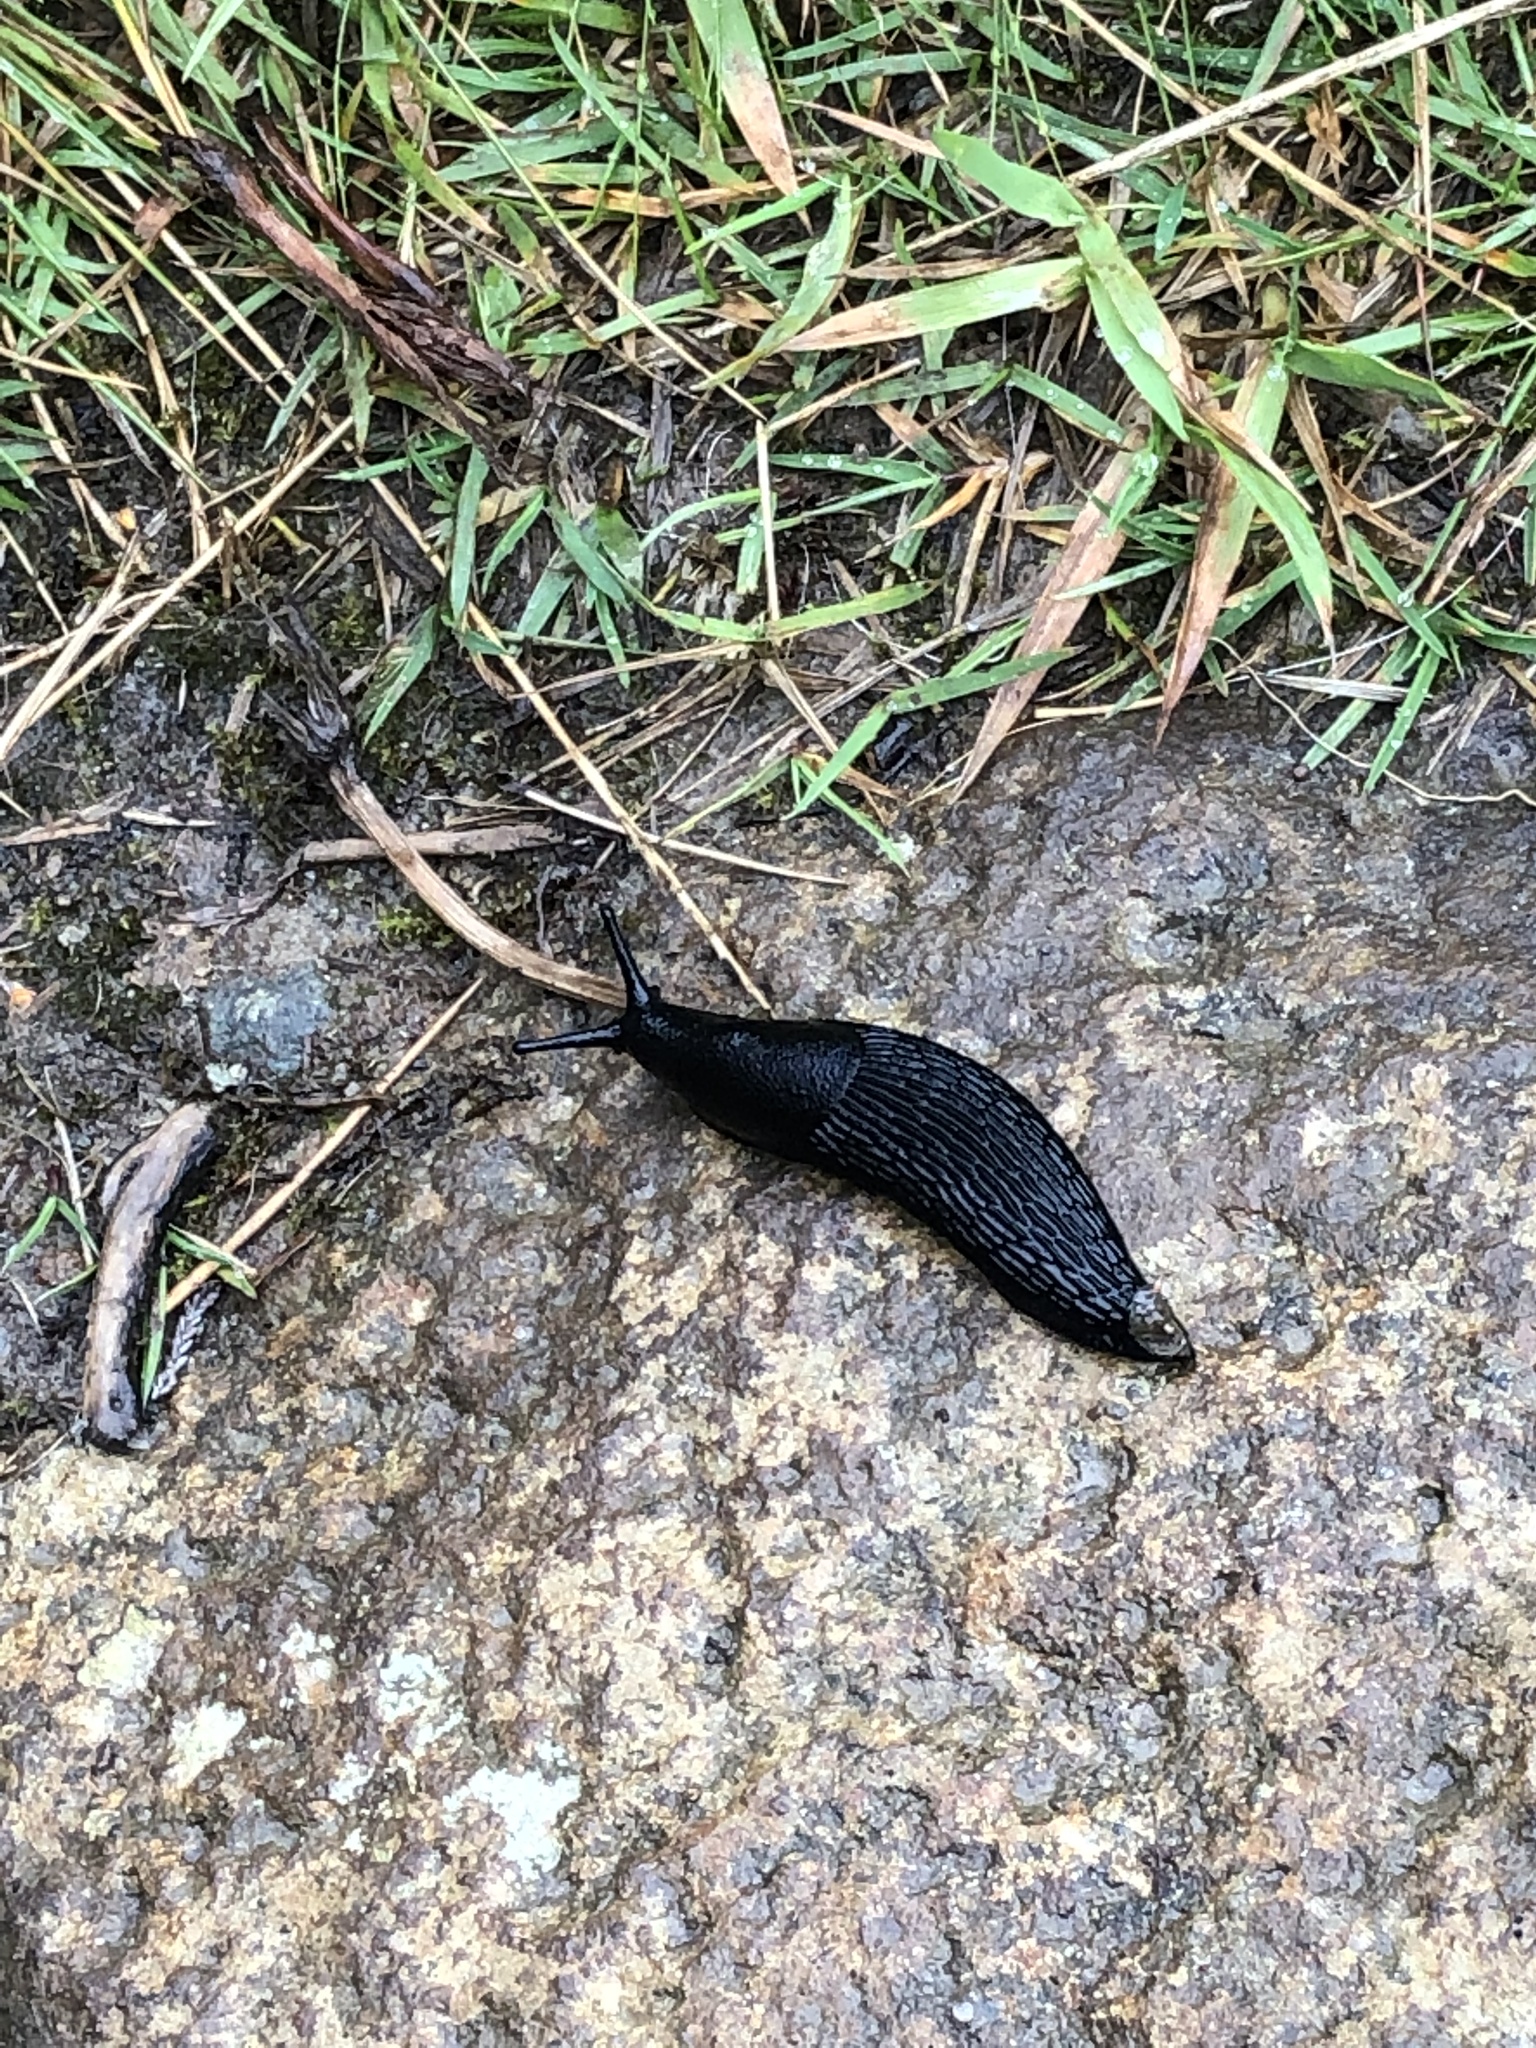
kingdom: Animalia
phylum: Mollusca
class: Gastropoda
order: Stylommatophora
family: Arionidae
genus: Arion
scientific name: Arion ater
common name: Black arion
